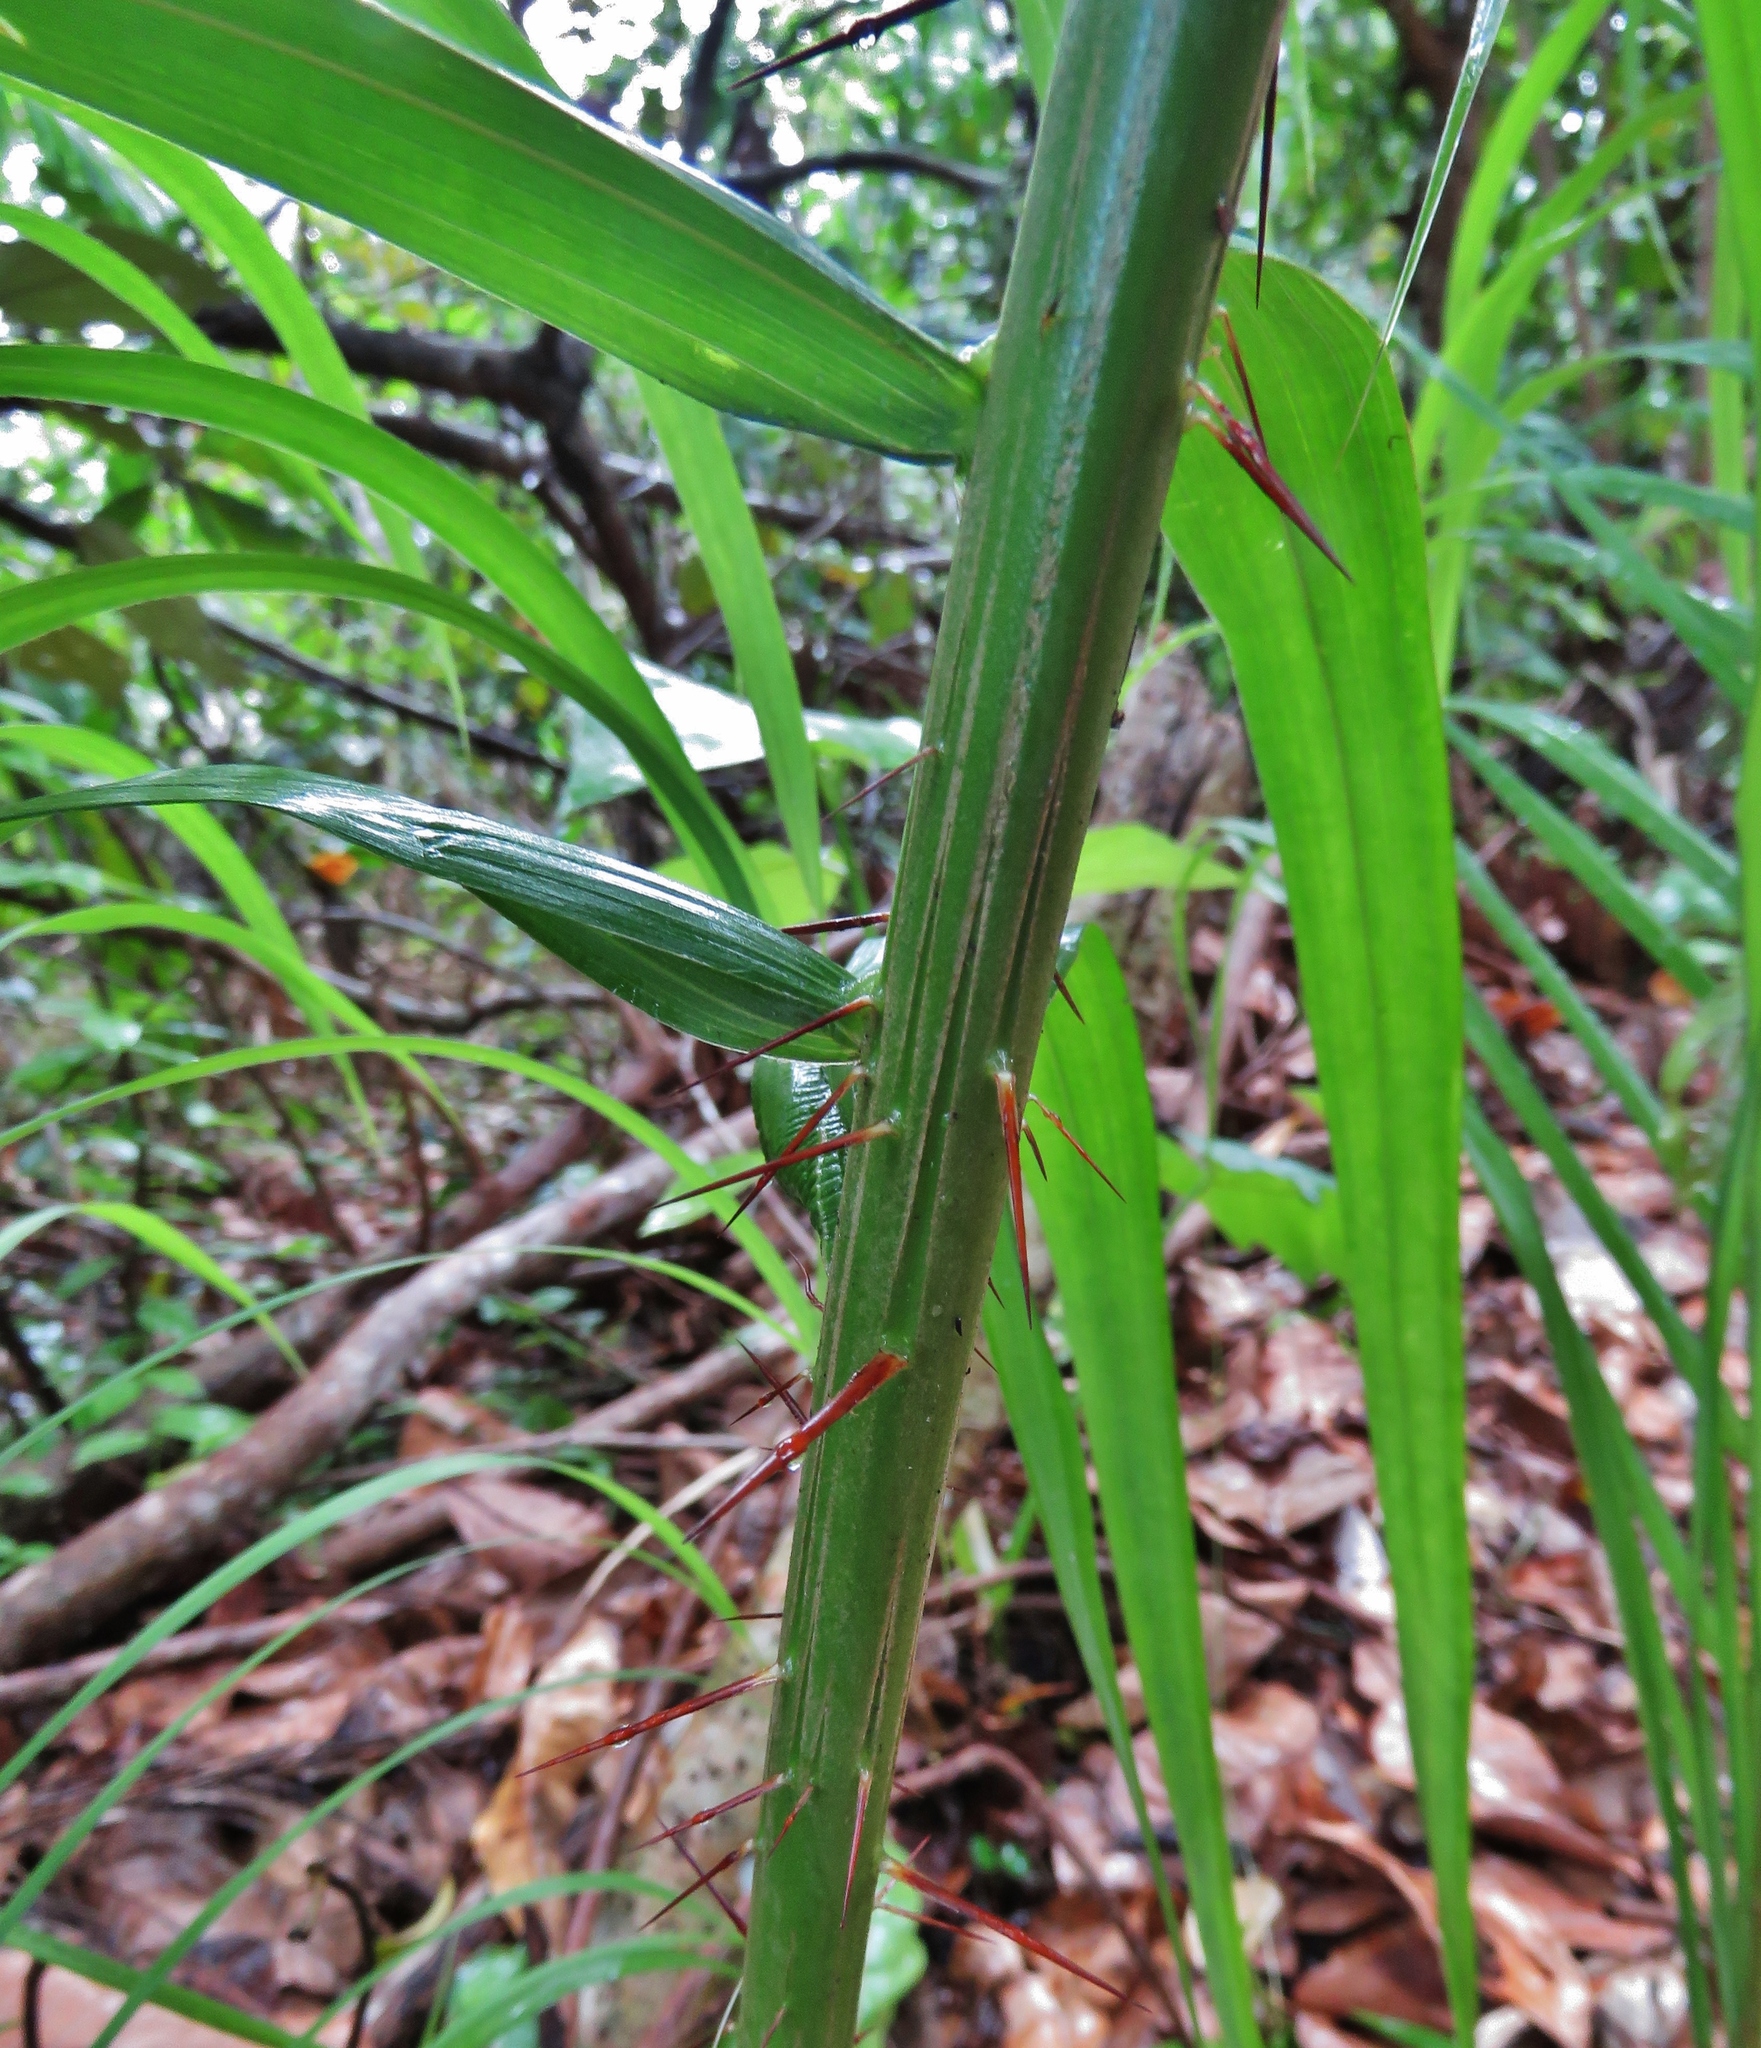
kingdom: Plantae
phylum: Tracheophyta
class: Liliopsida
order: Arecales
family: Arecaceae
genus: Acrocomia
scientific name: Acrocomia aculeata
